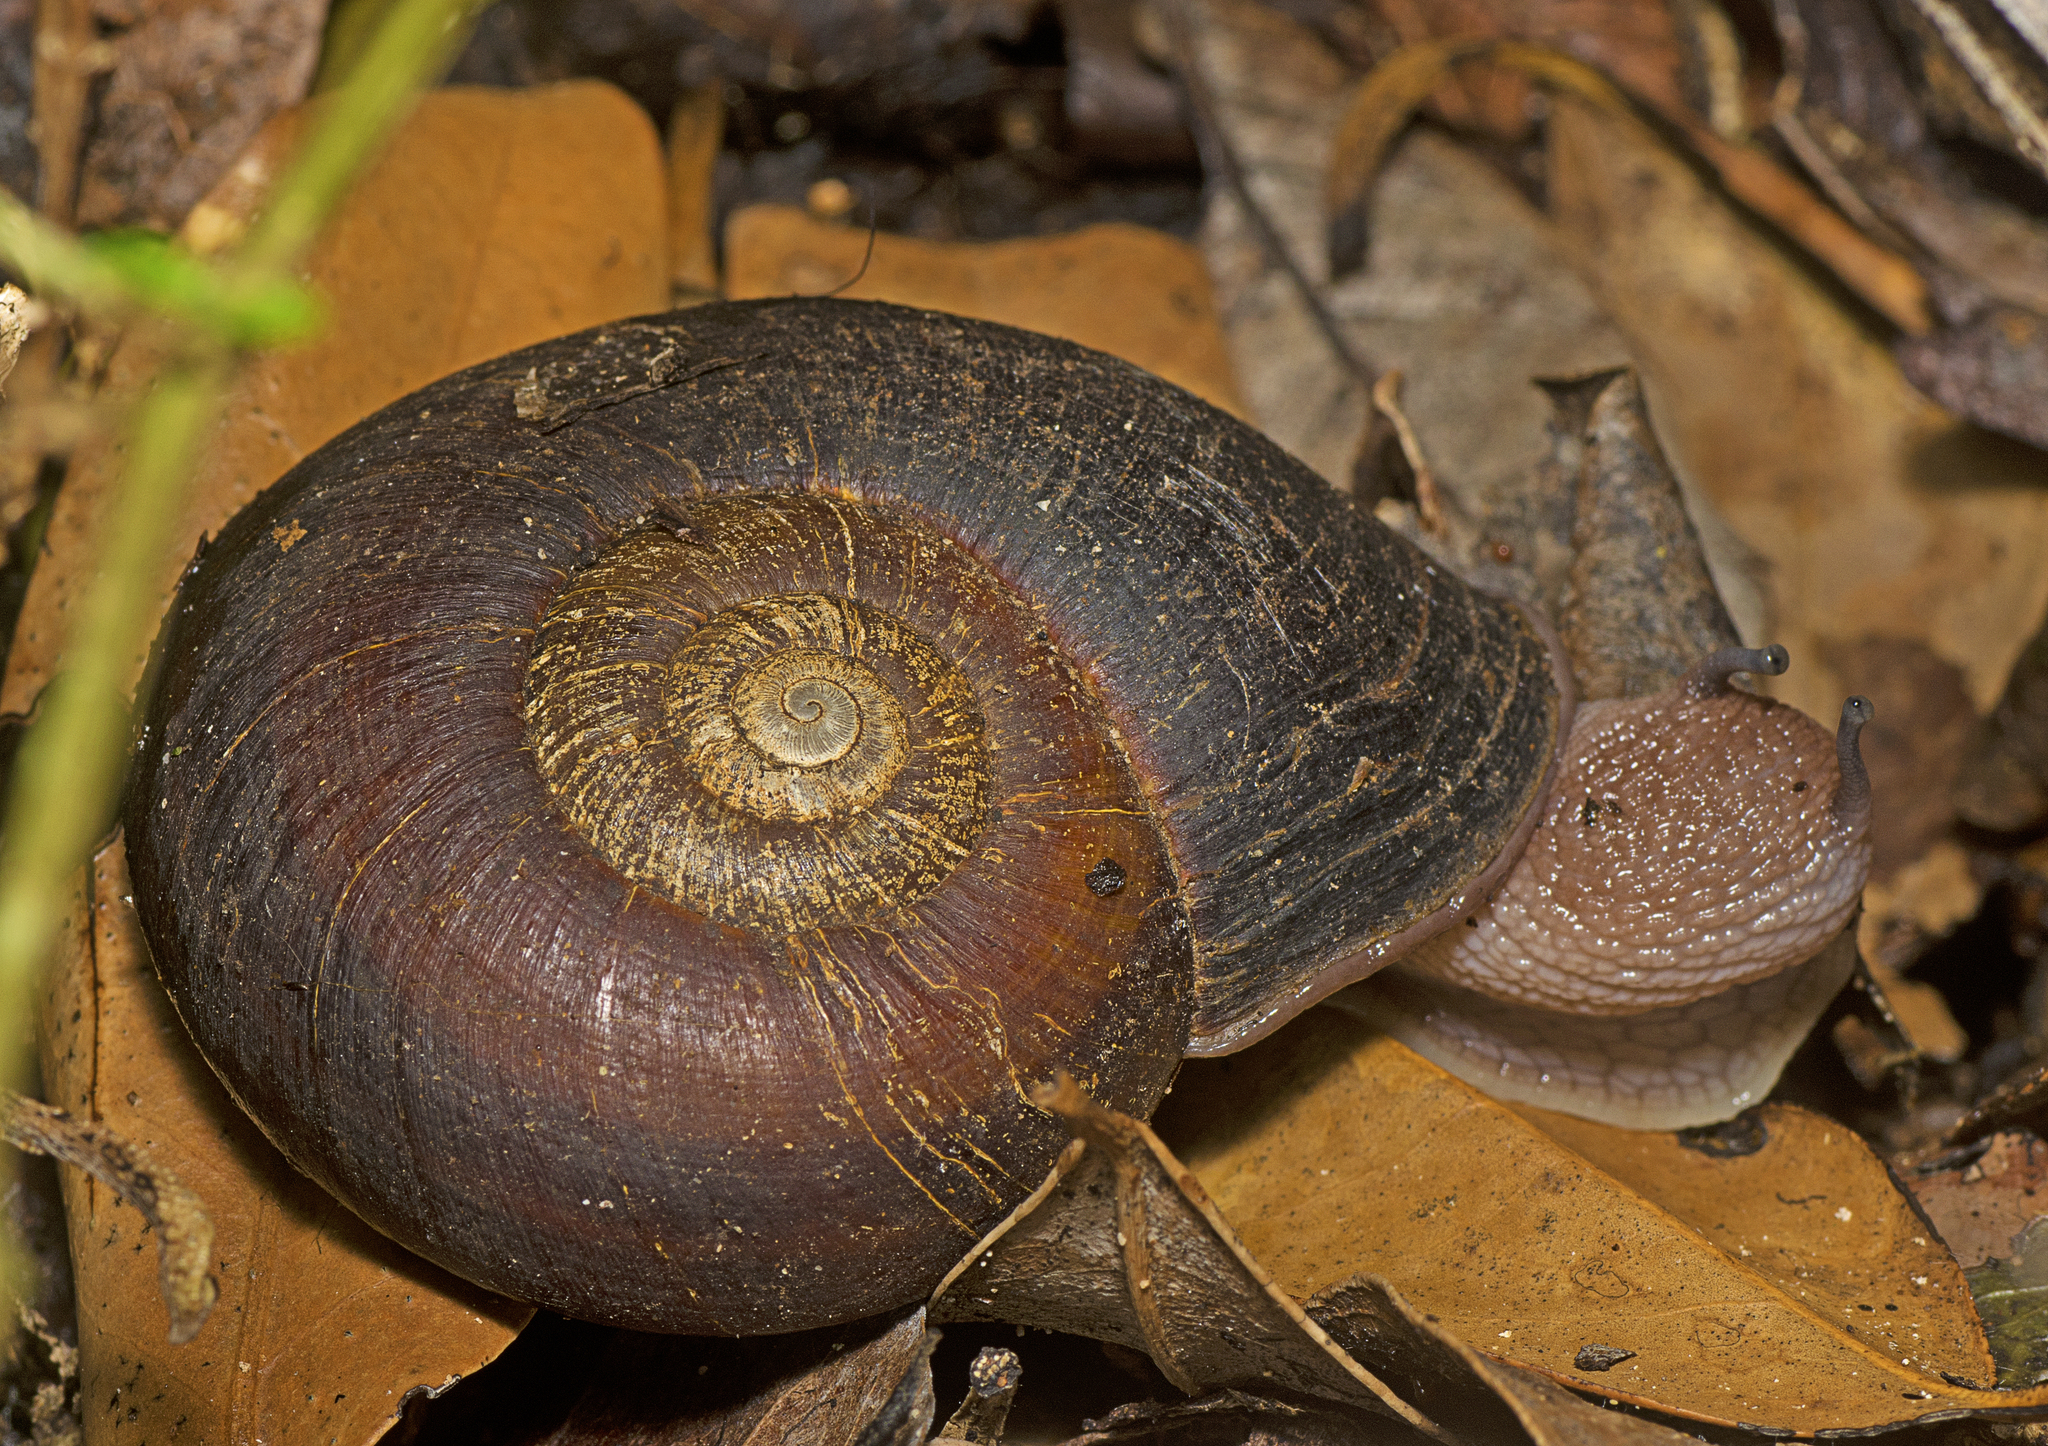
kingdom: Animalia
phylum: Mollusca
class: Gastropoda
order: Stylommatophora
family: Caryodidae
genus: Pedinogyra
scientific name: Pedinogyra cania
